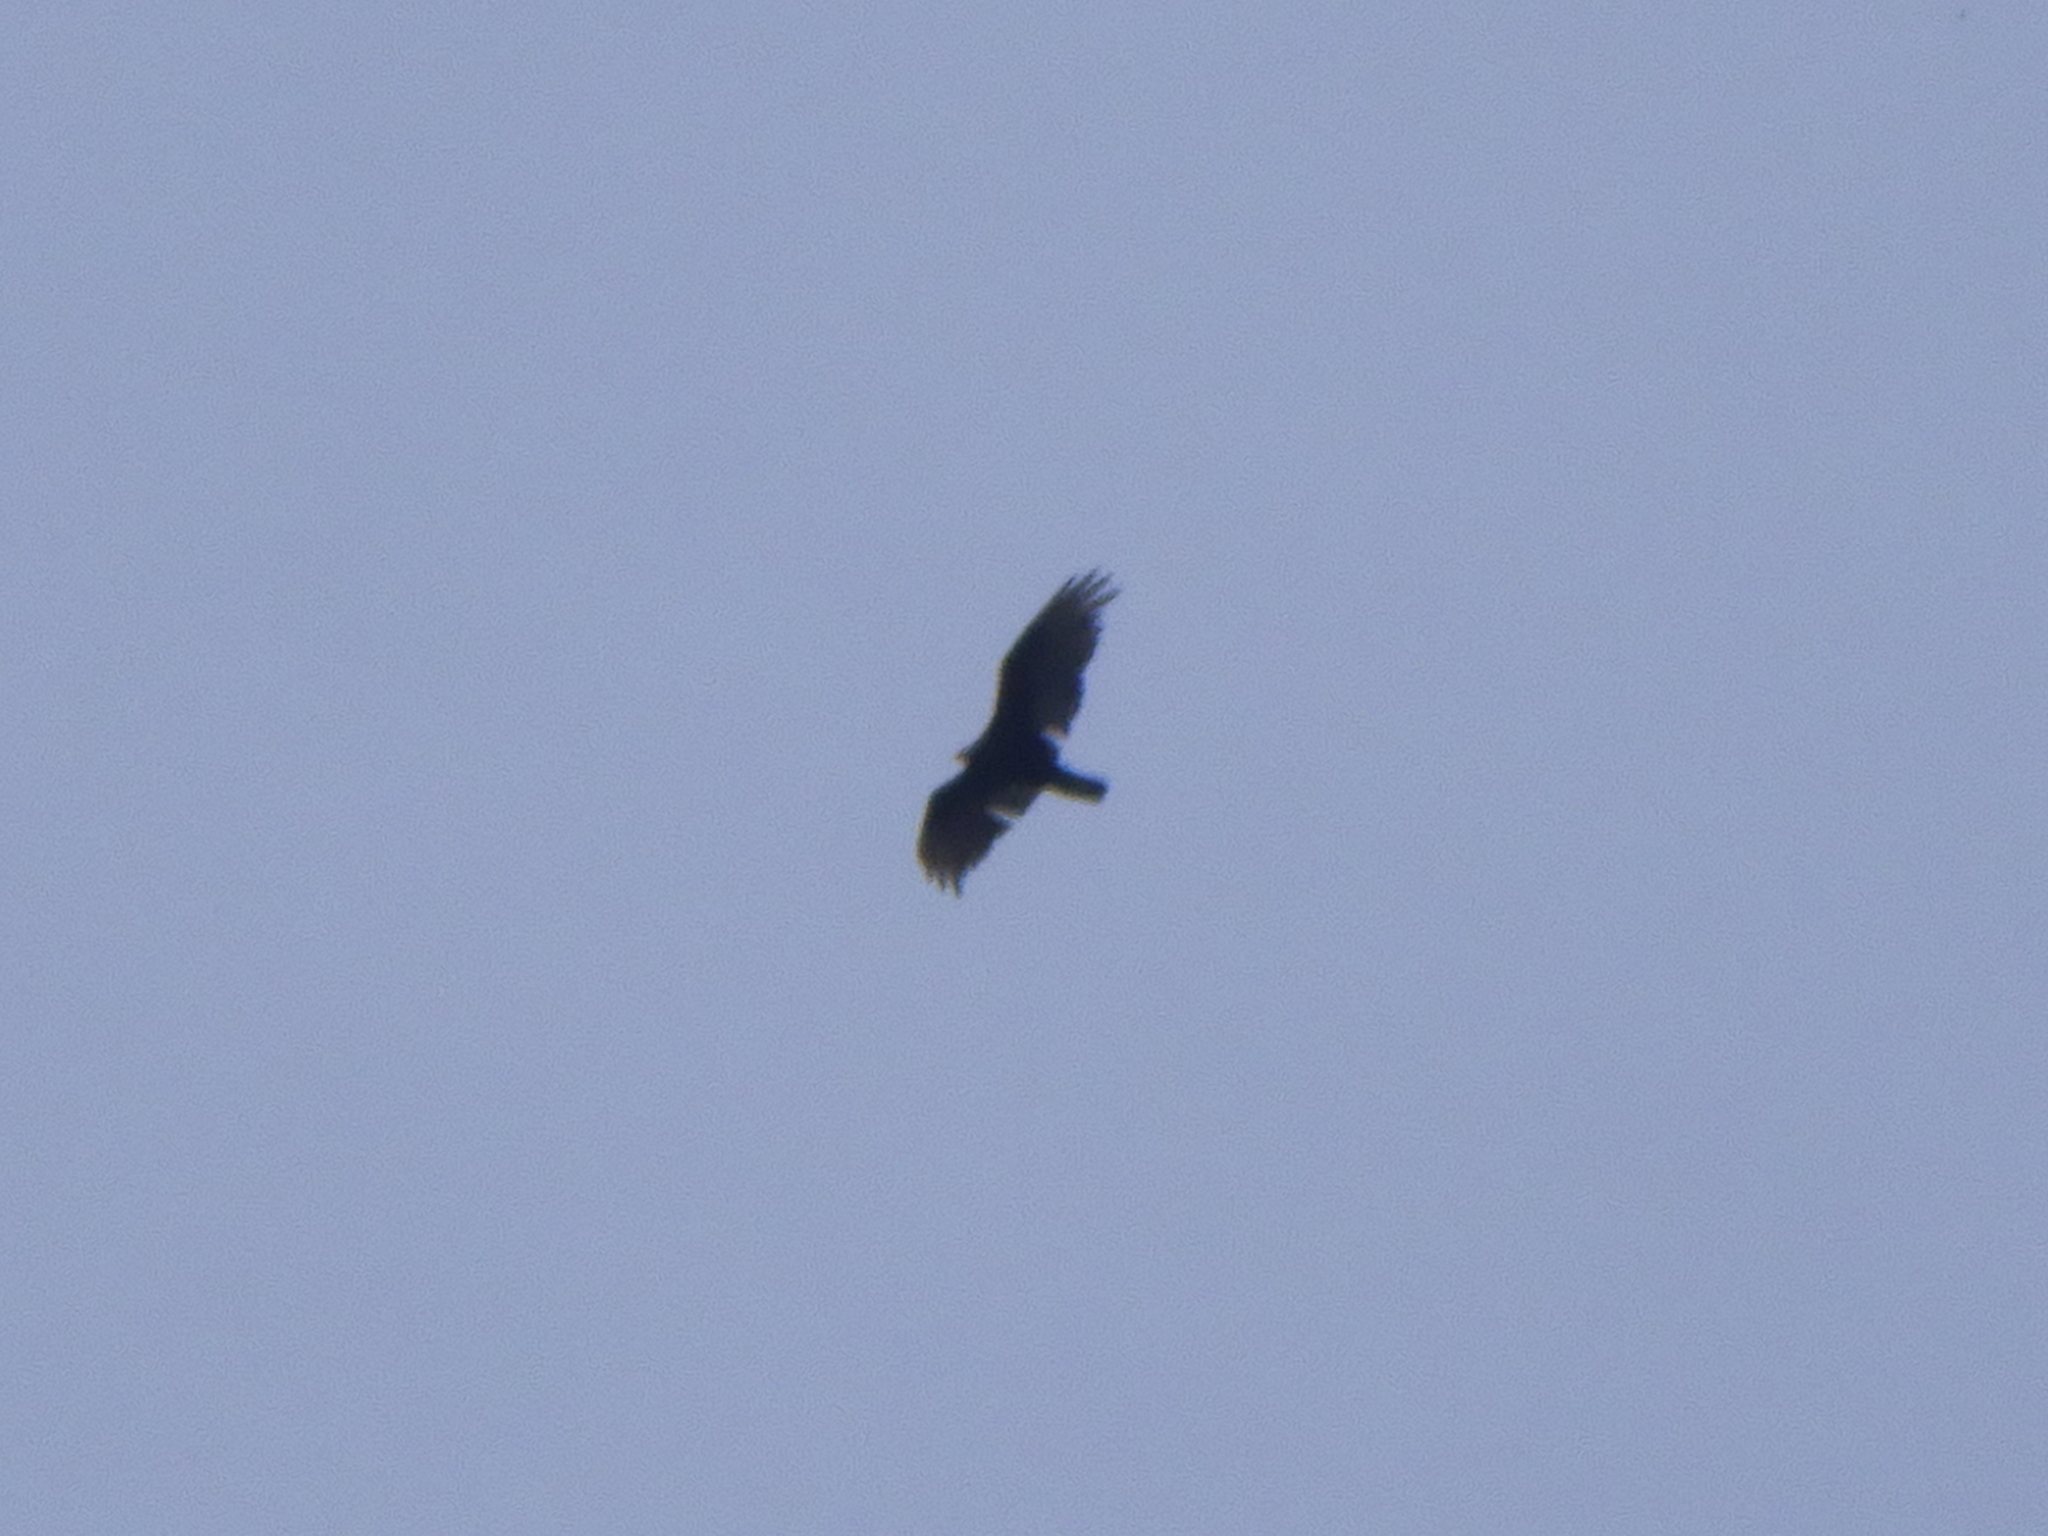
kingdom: Animalia
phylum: Chordata
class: Aves
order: Accipitriformes
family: Cathartidae
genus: Cathartes
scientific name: Cathartes aura
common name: Turkey vulture
